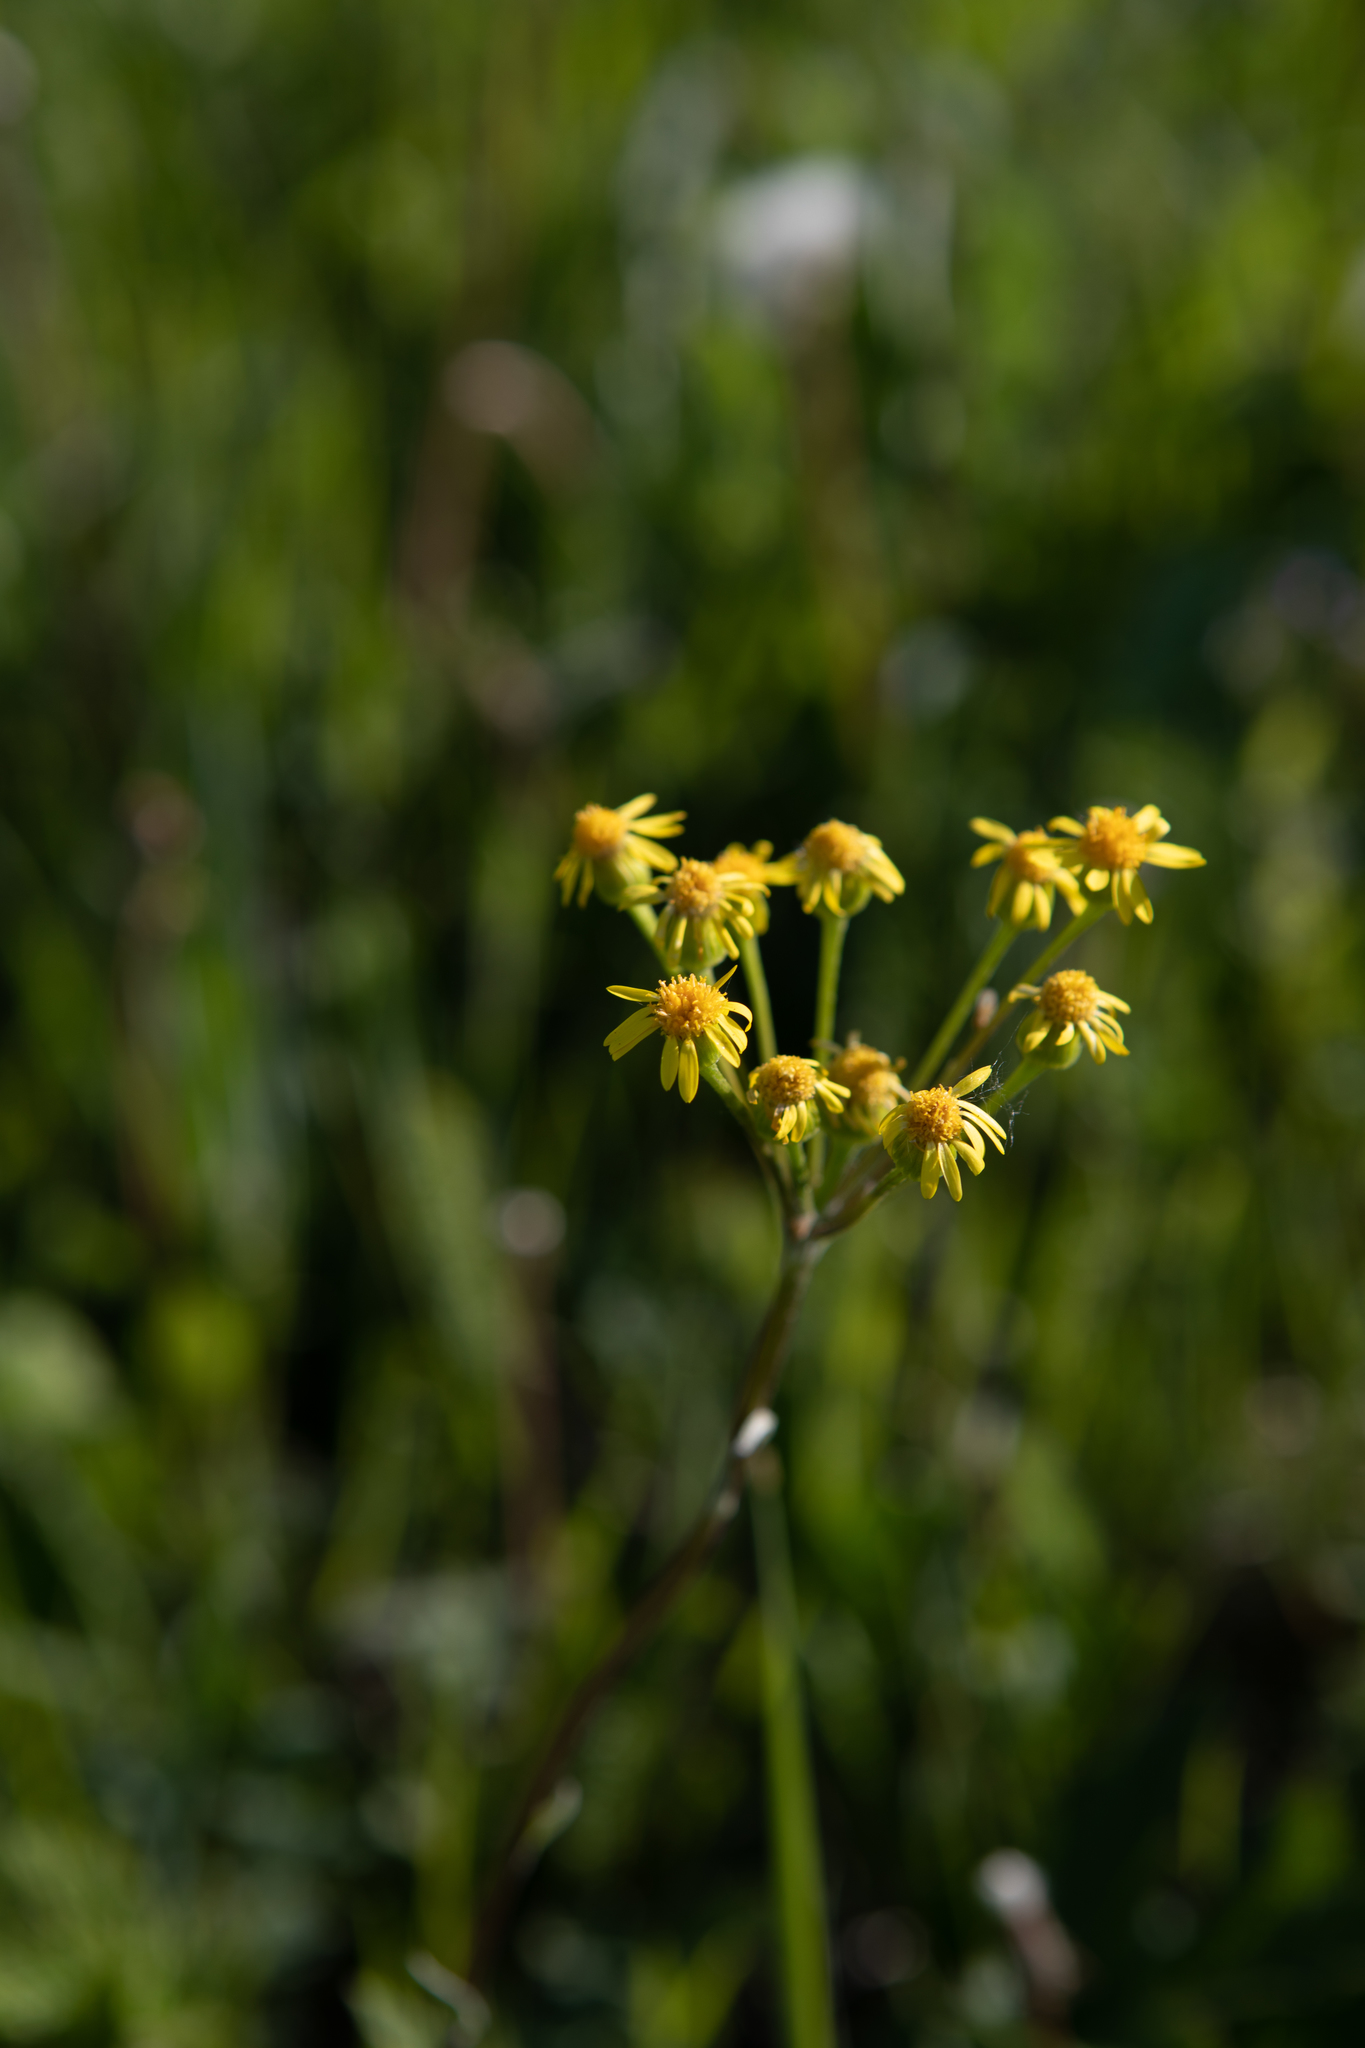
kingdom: Plantae
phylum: Tracheophyta
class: Magnoliopsida
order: Asterales
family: Asteraceae
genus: Tephroseris
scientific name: Tephroseris integrifolia
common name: Field fleawort
